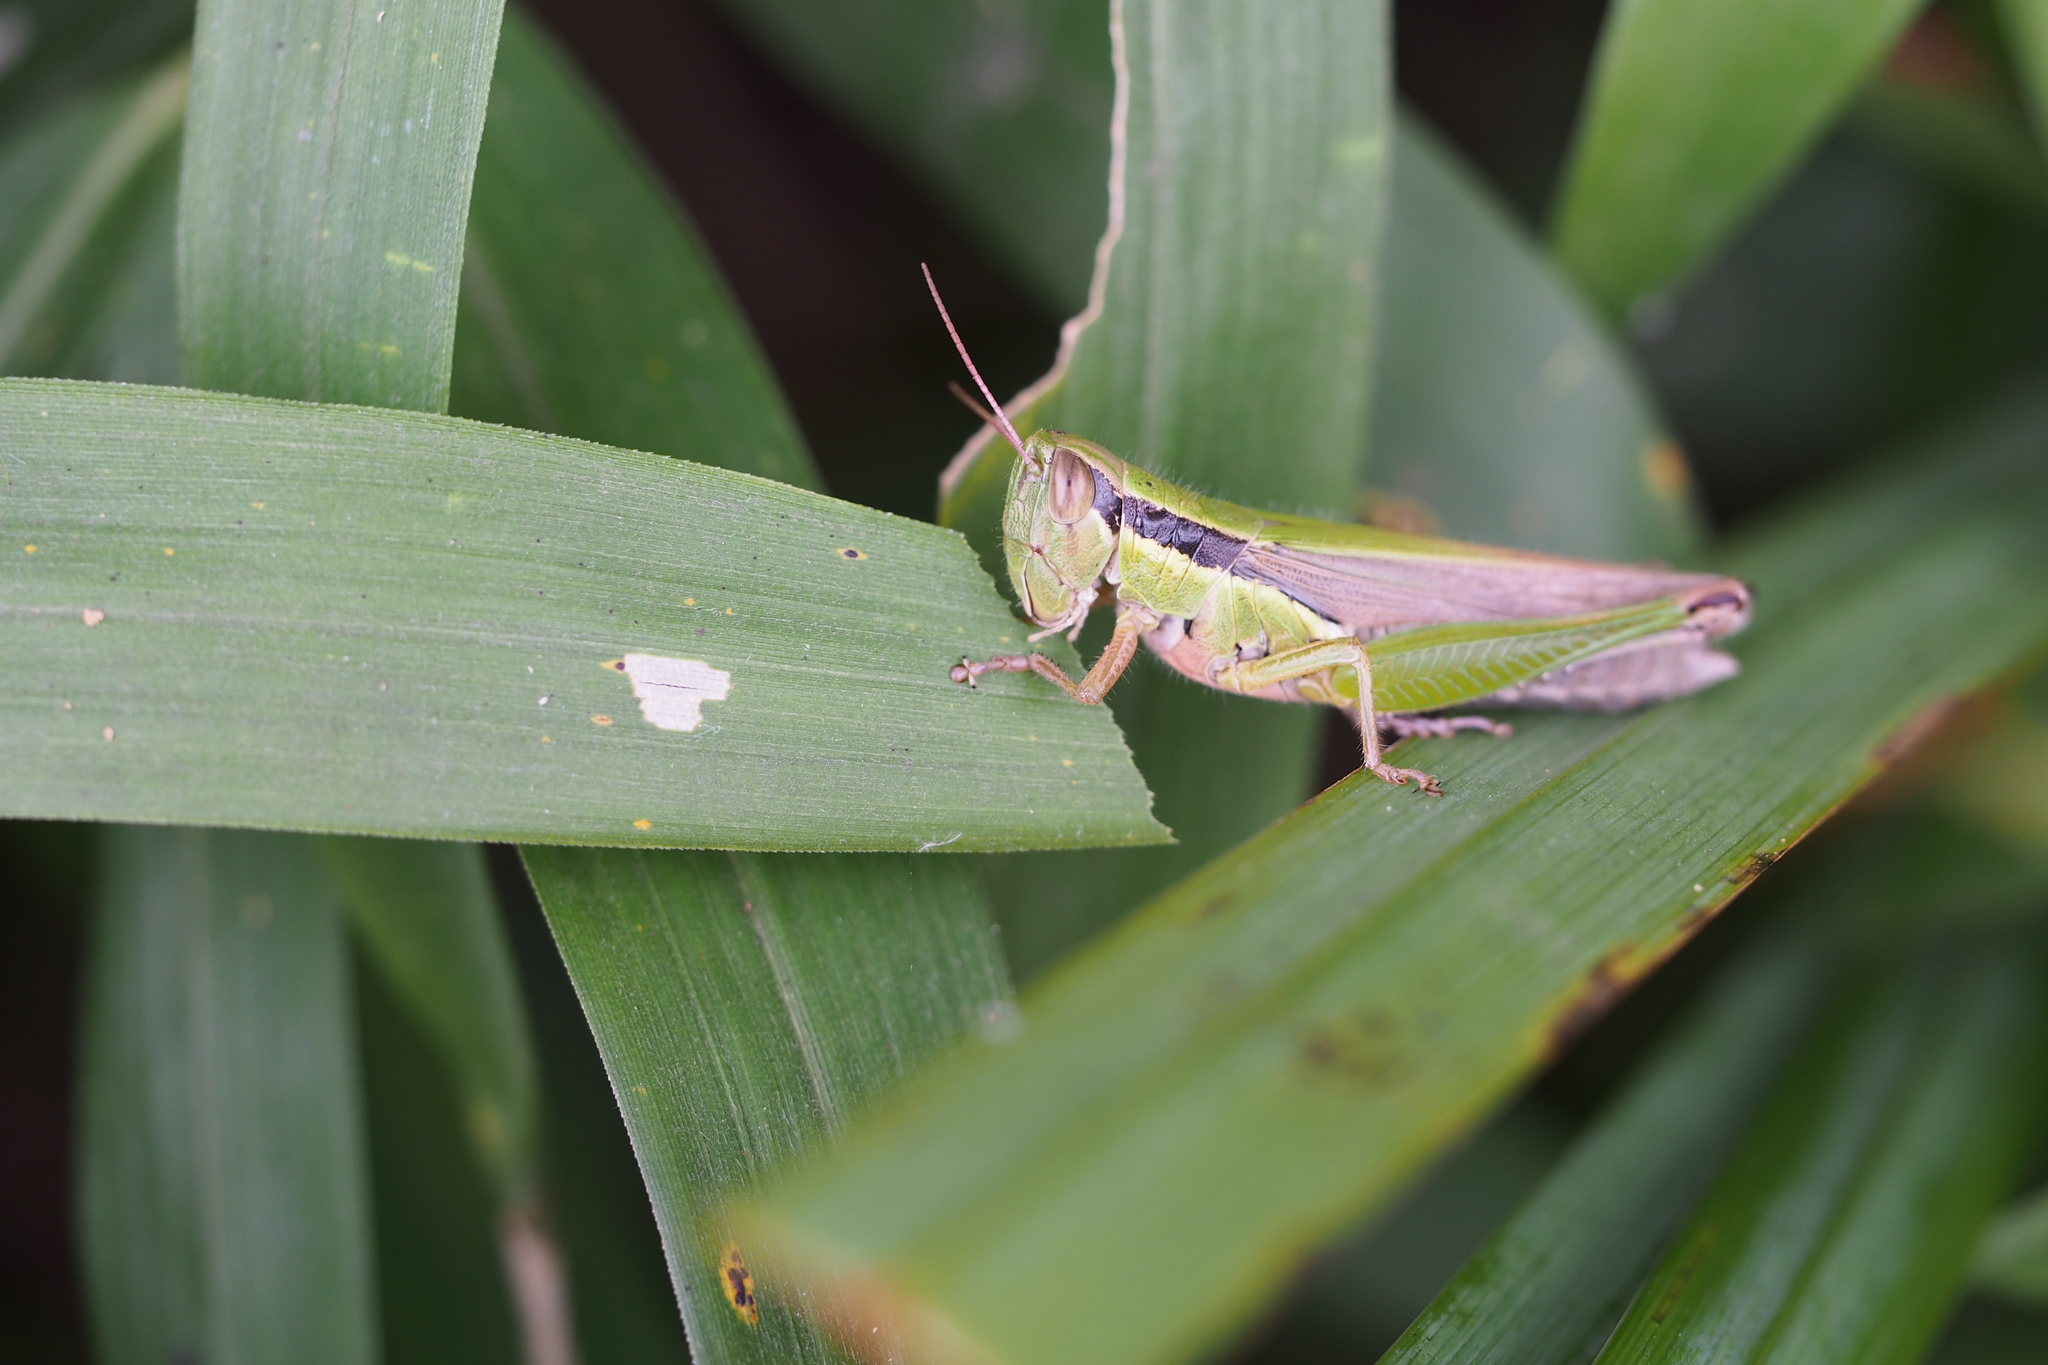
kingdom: Animalia
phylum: Arthropoda
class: Insecta
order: Orthoptera
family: Acrididae
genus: Oxya
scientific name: Oxya yezoensis
